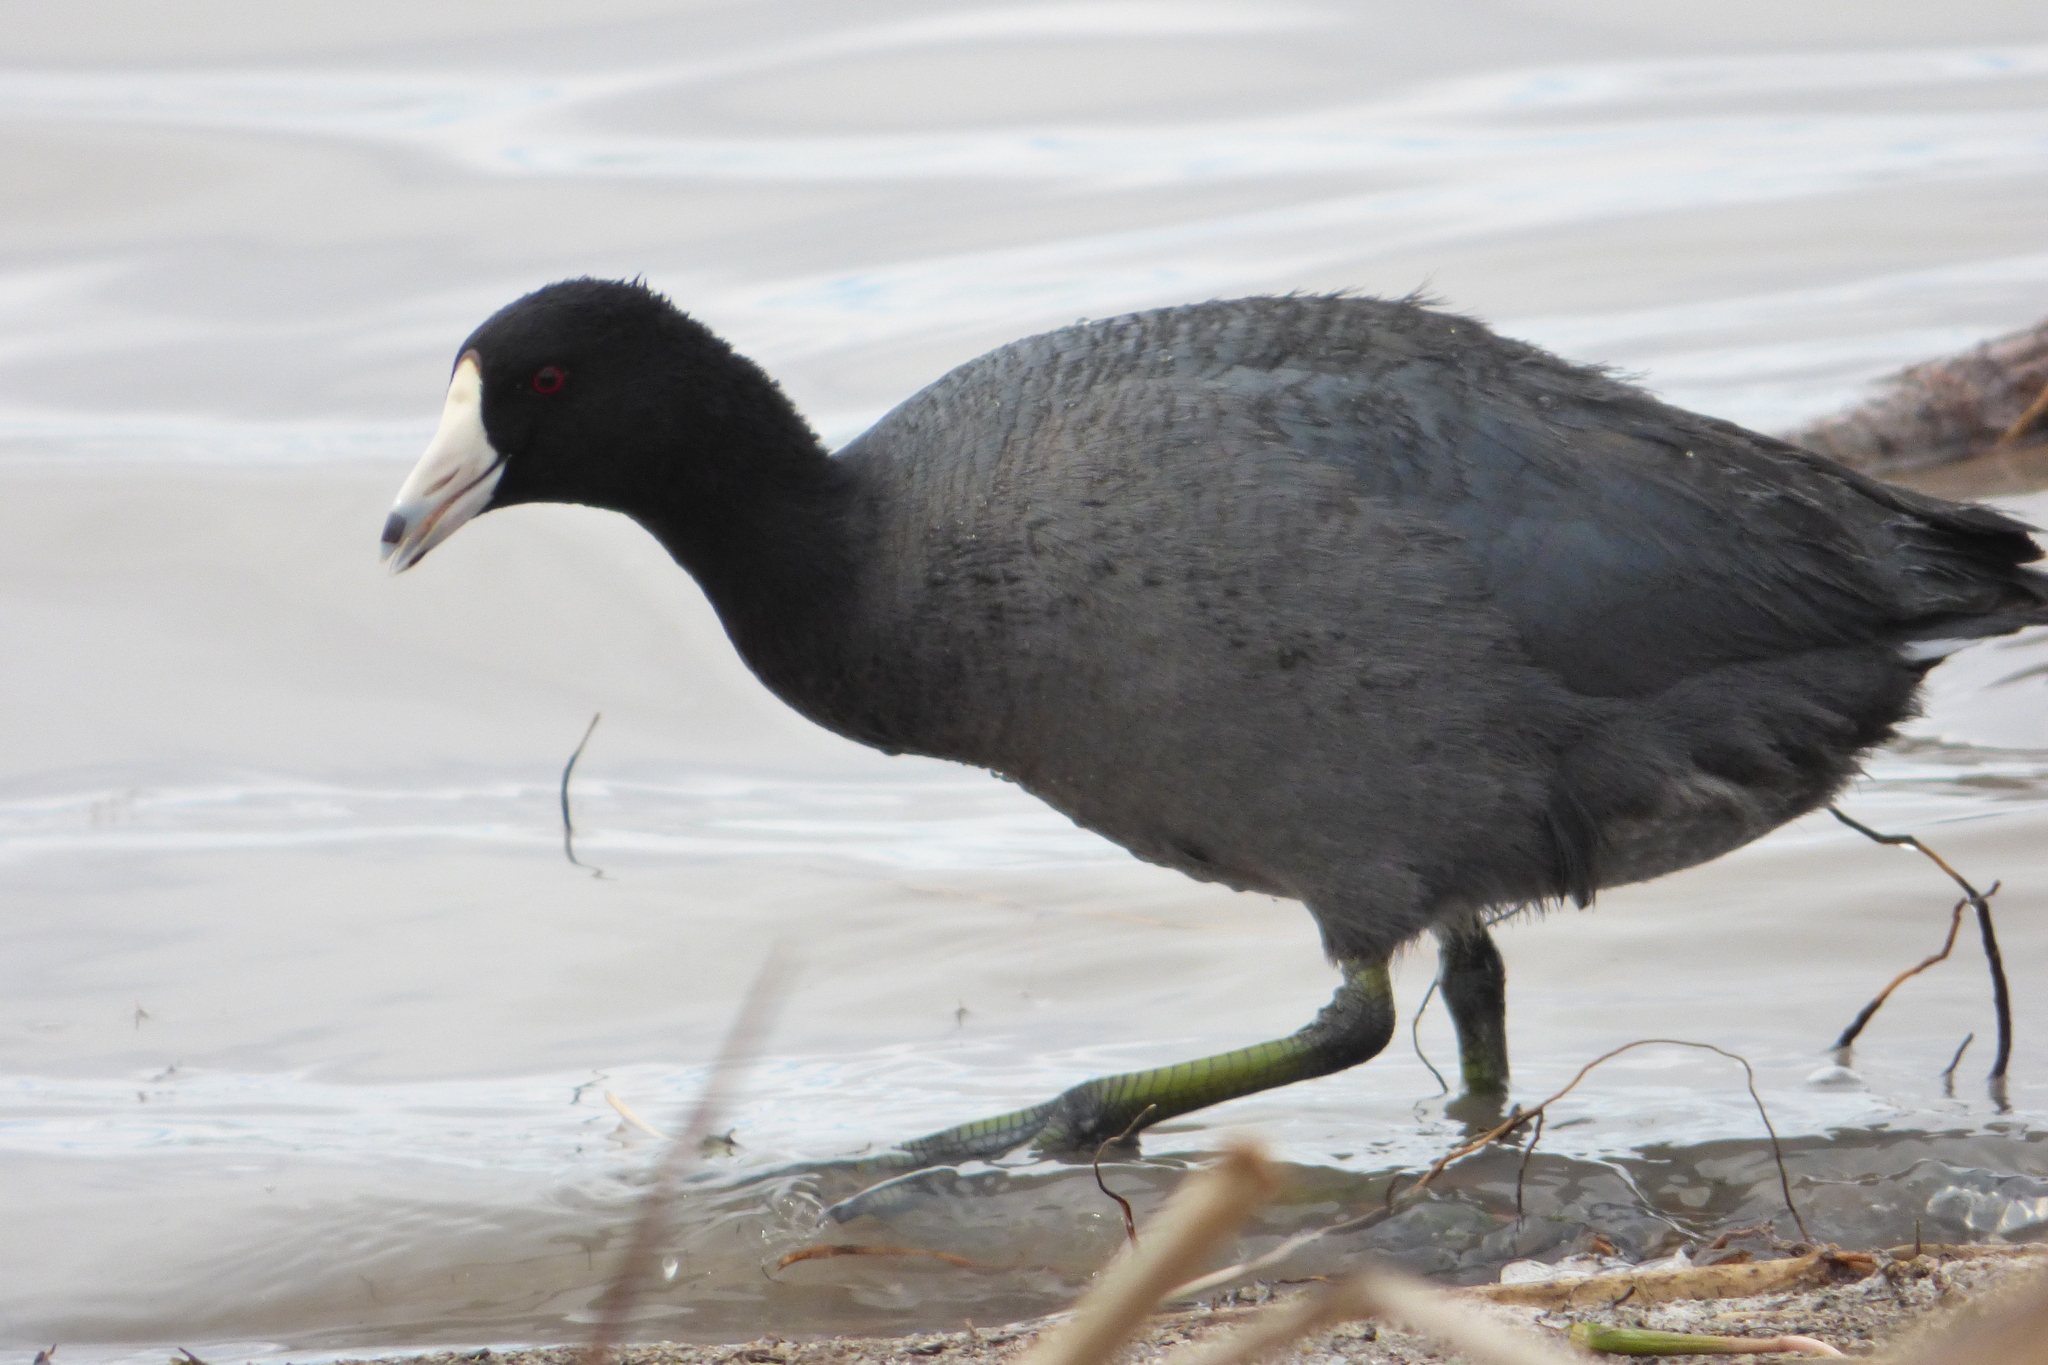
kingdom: Animalia
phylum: Chordata
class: Aves
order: Gruiformes
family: Rallidae
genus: Fulica
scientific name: Fulica americana
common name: American coot
